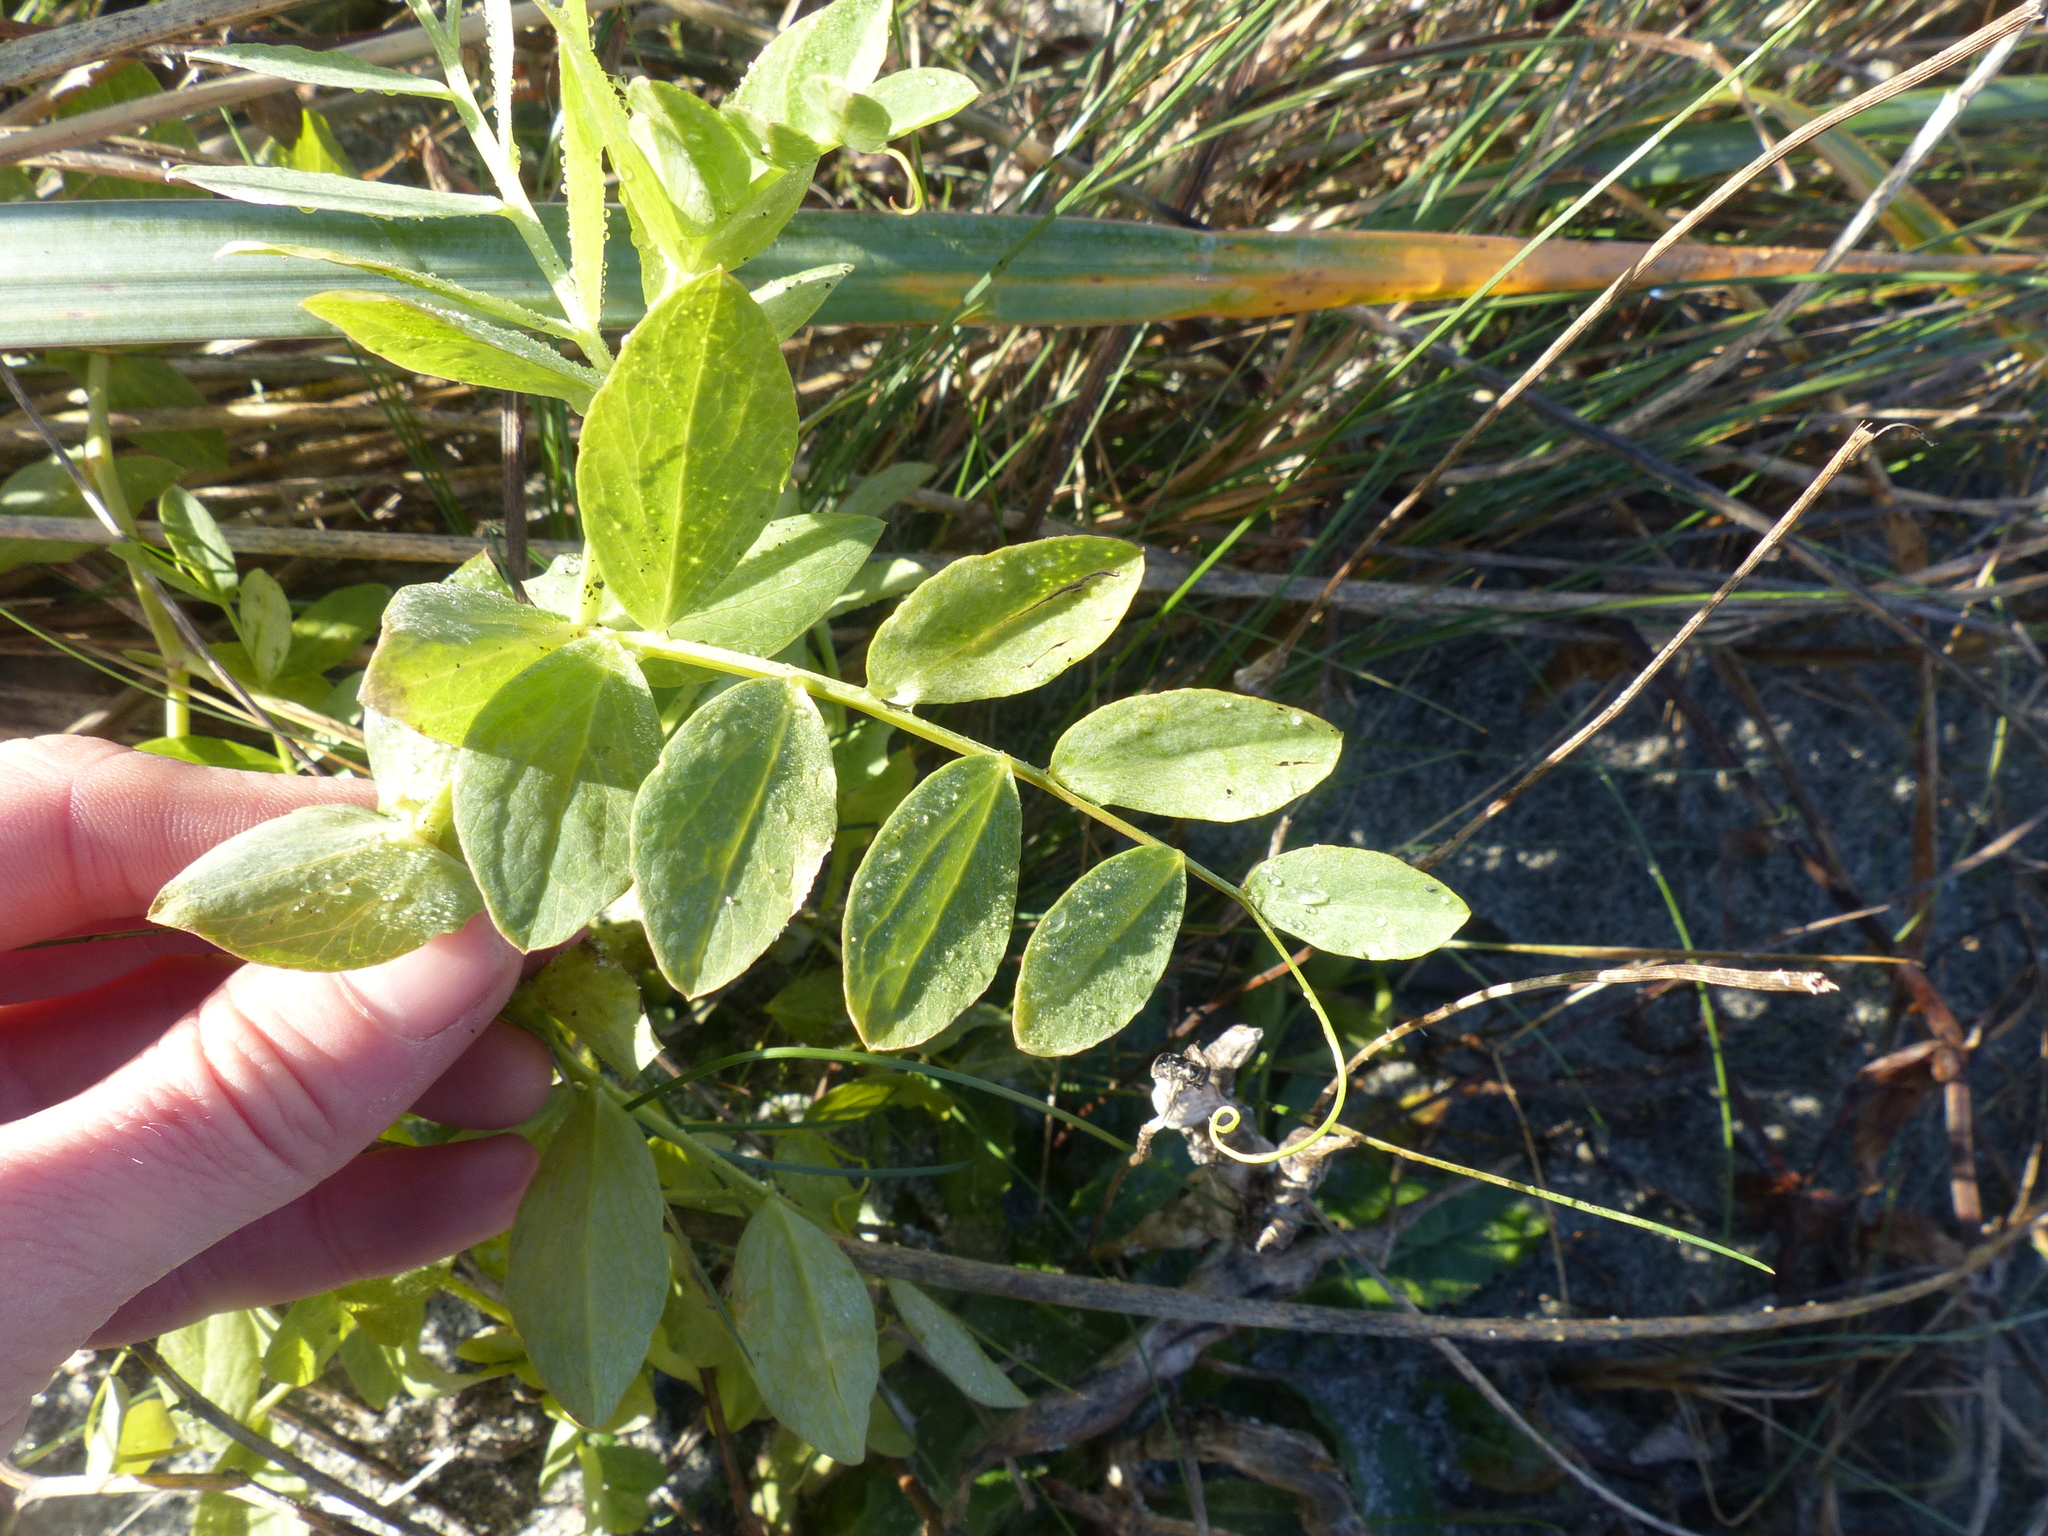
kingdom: Plantae
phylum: Tracheophyta
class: Magnoliopsida
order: Fabales
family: Fabaceae
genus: Lathyrus
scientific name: Lathyrus japonicus
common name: Sea pea
